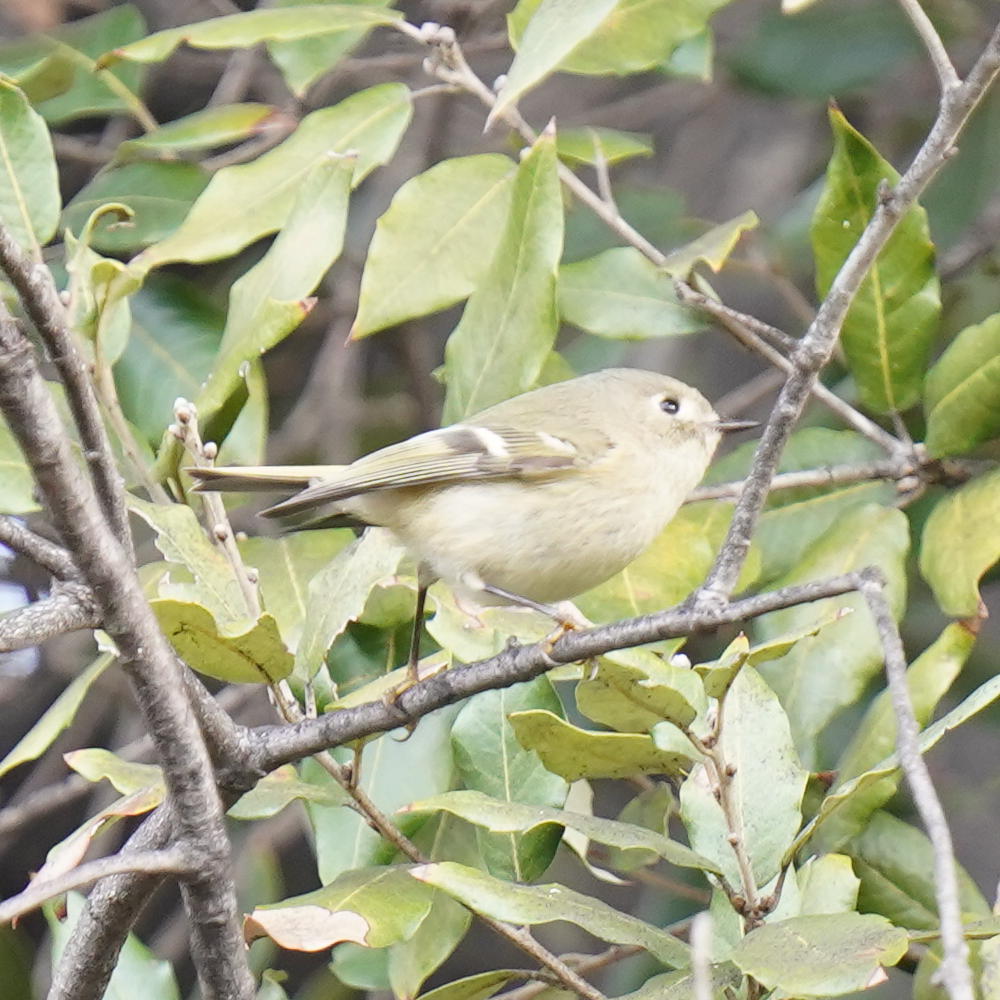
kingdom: Animalia
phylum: Chordata
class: Aves
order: Passeriformes
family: Regulidae
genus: Regulus
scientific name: Regulus calendula
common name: Ruby-crowned kinglet
